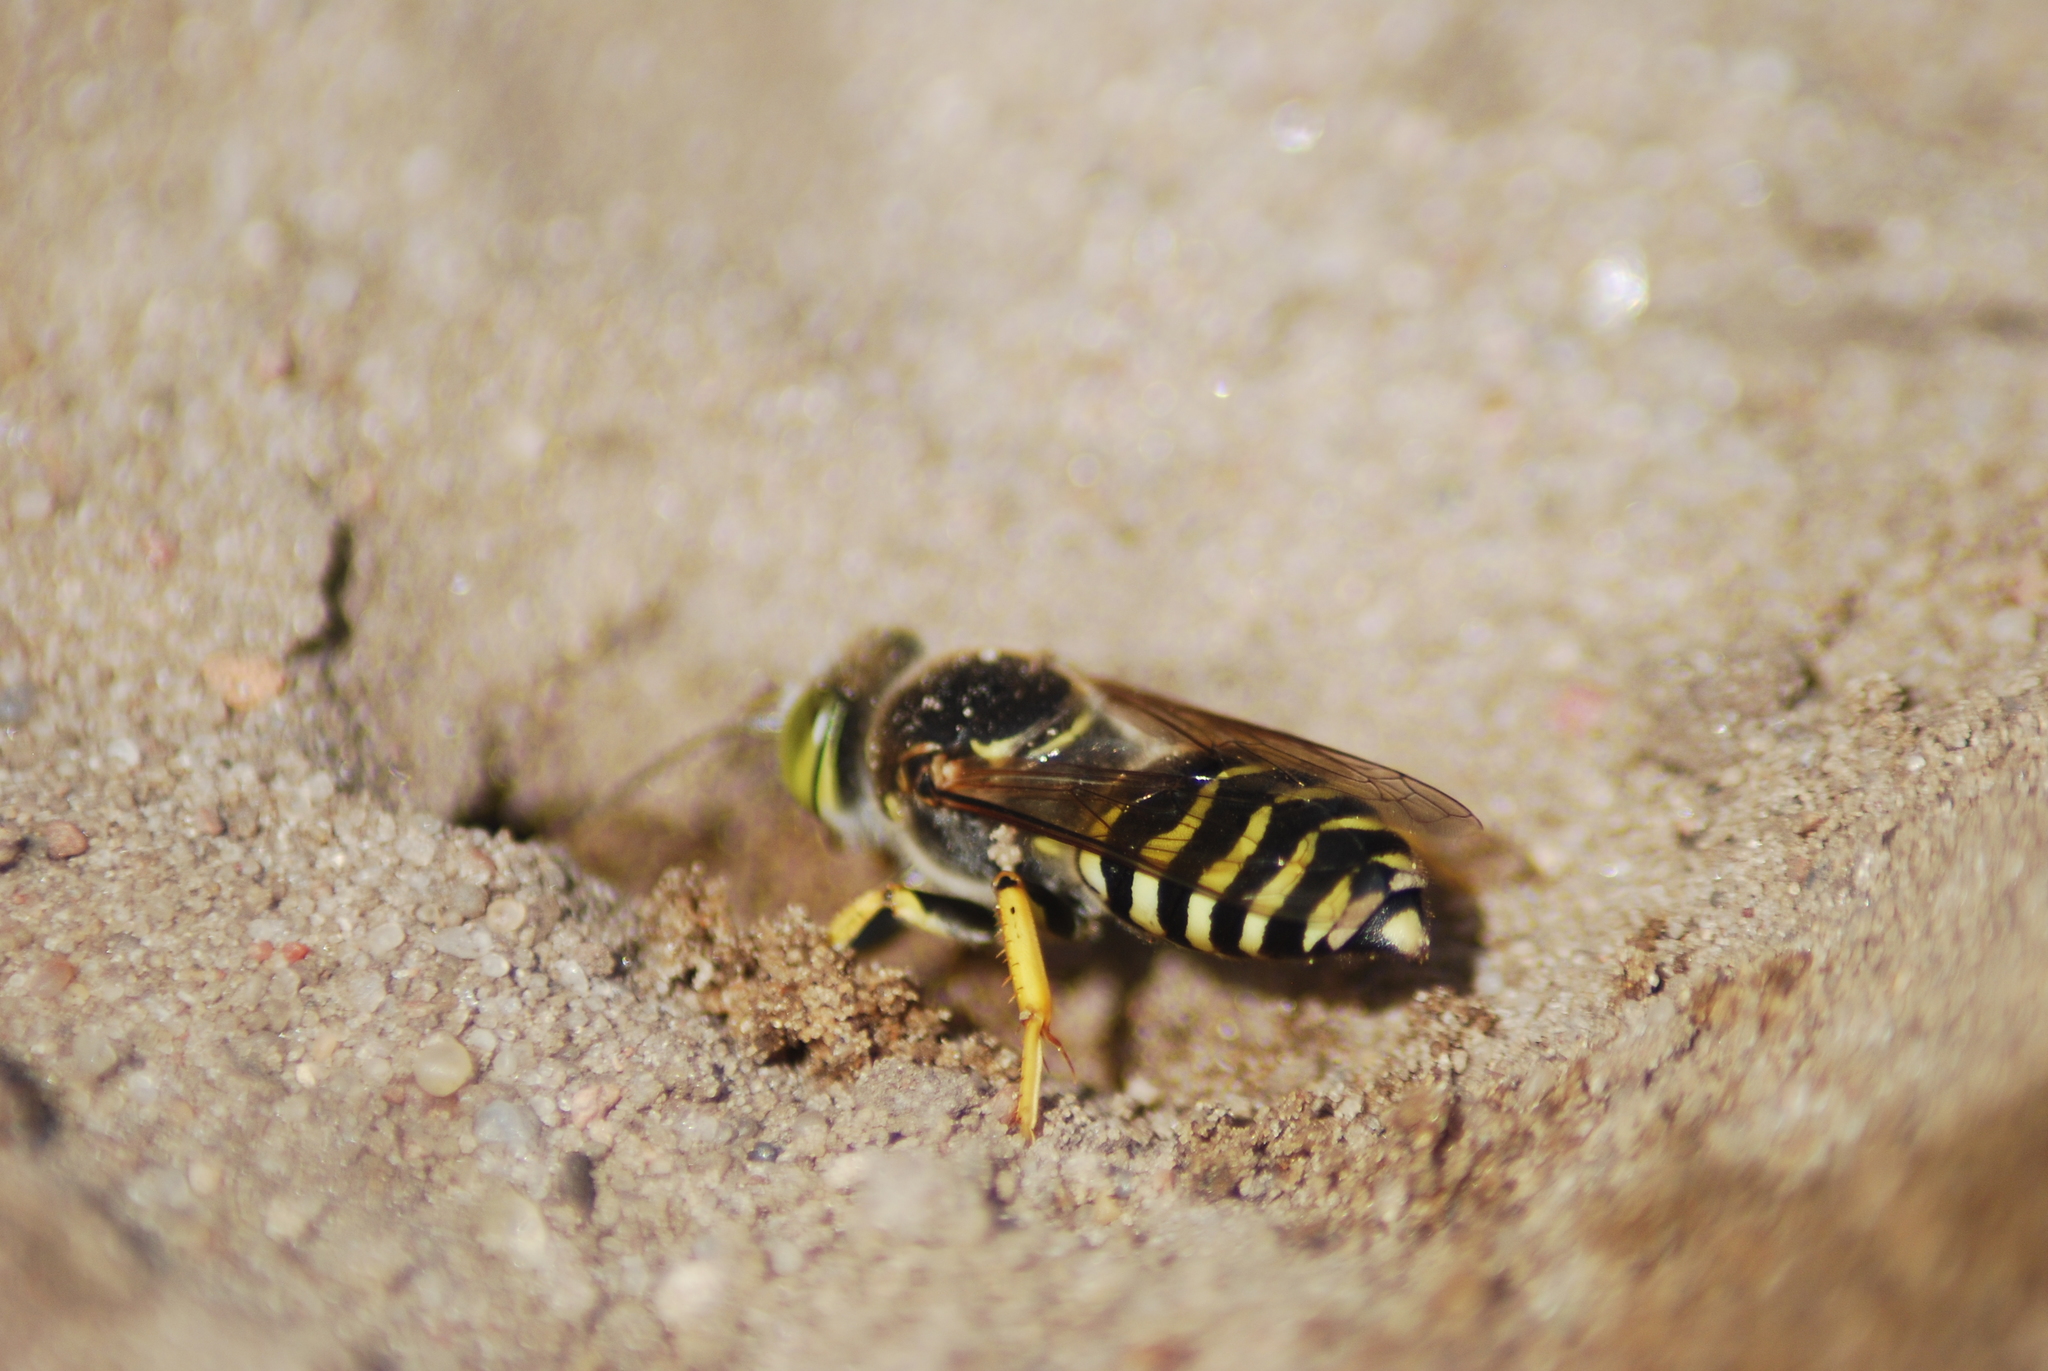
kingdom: Animalia
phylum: Arthropoda
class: Insecta
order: Hymenoptera
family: Crabronidae
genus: Bembix
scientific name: Bembix rostrata
